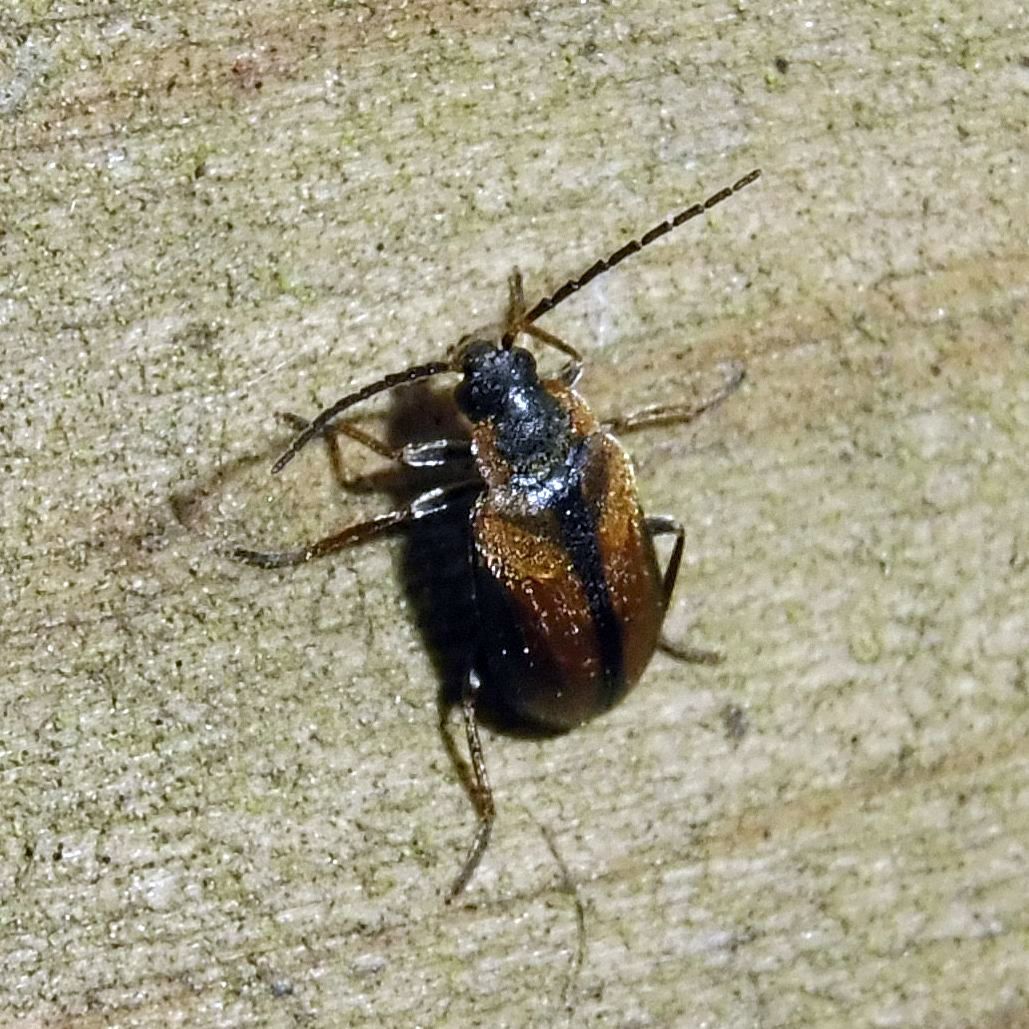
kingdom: Animalia
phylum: Arthropoda
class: Insecta
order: Coleoptera
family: Scirtidae
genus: Odeles
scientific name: Odeles marginata
